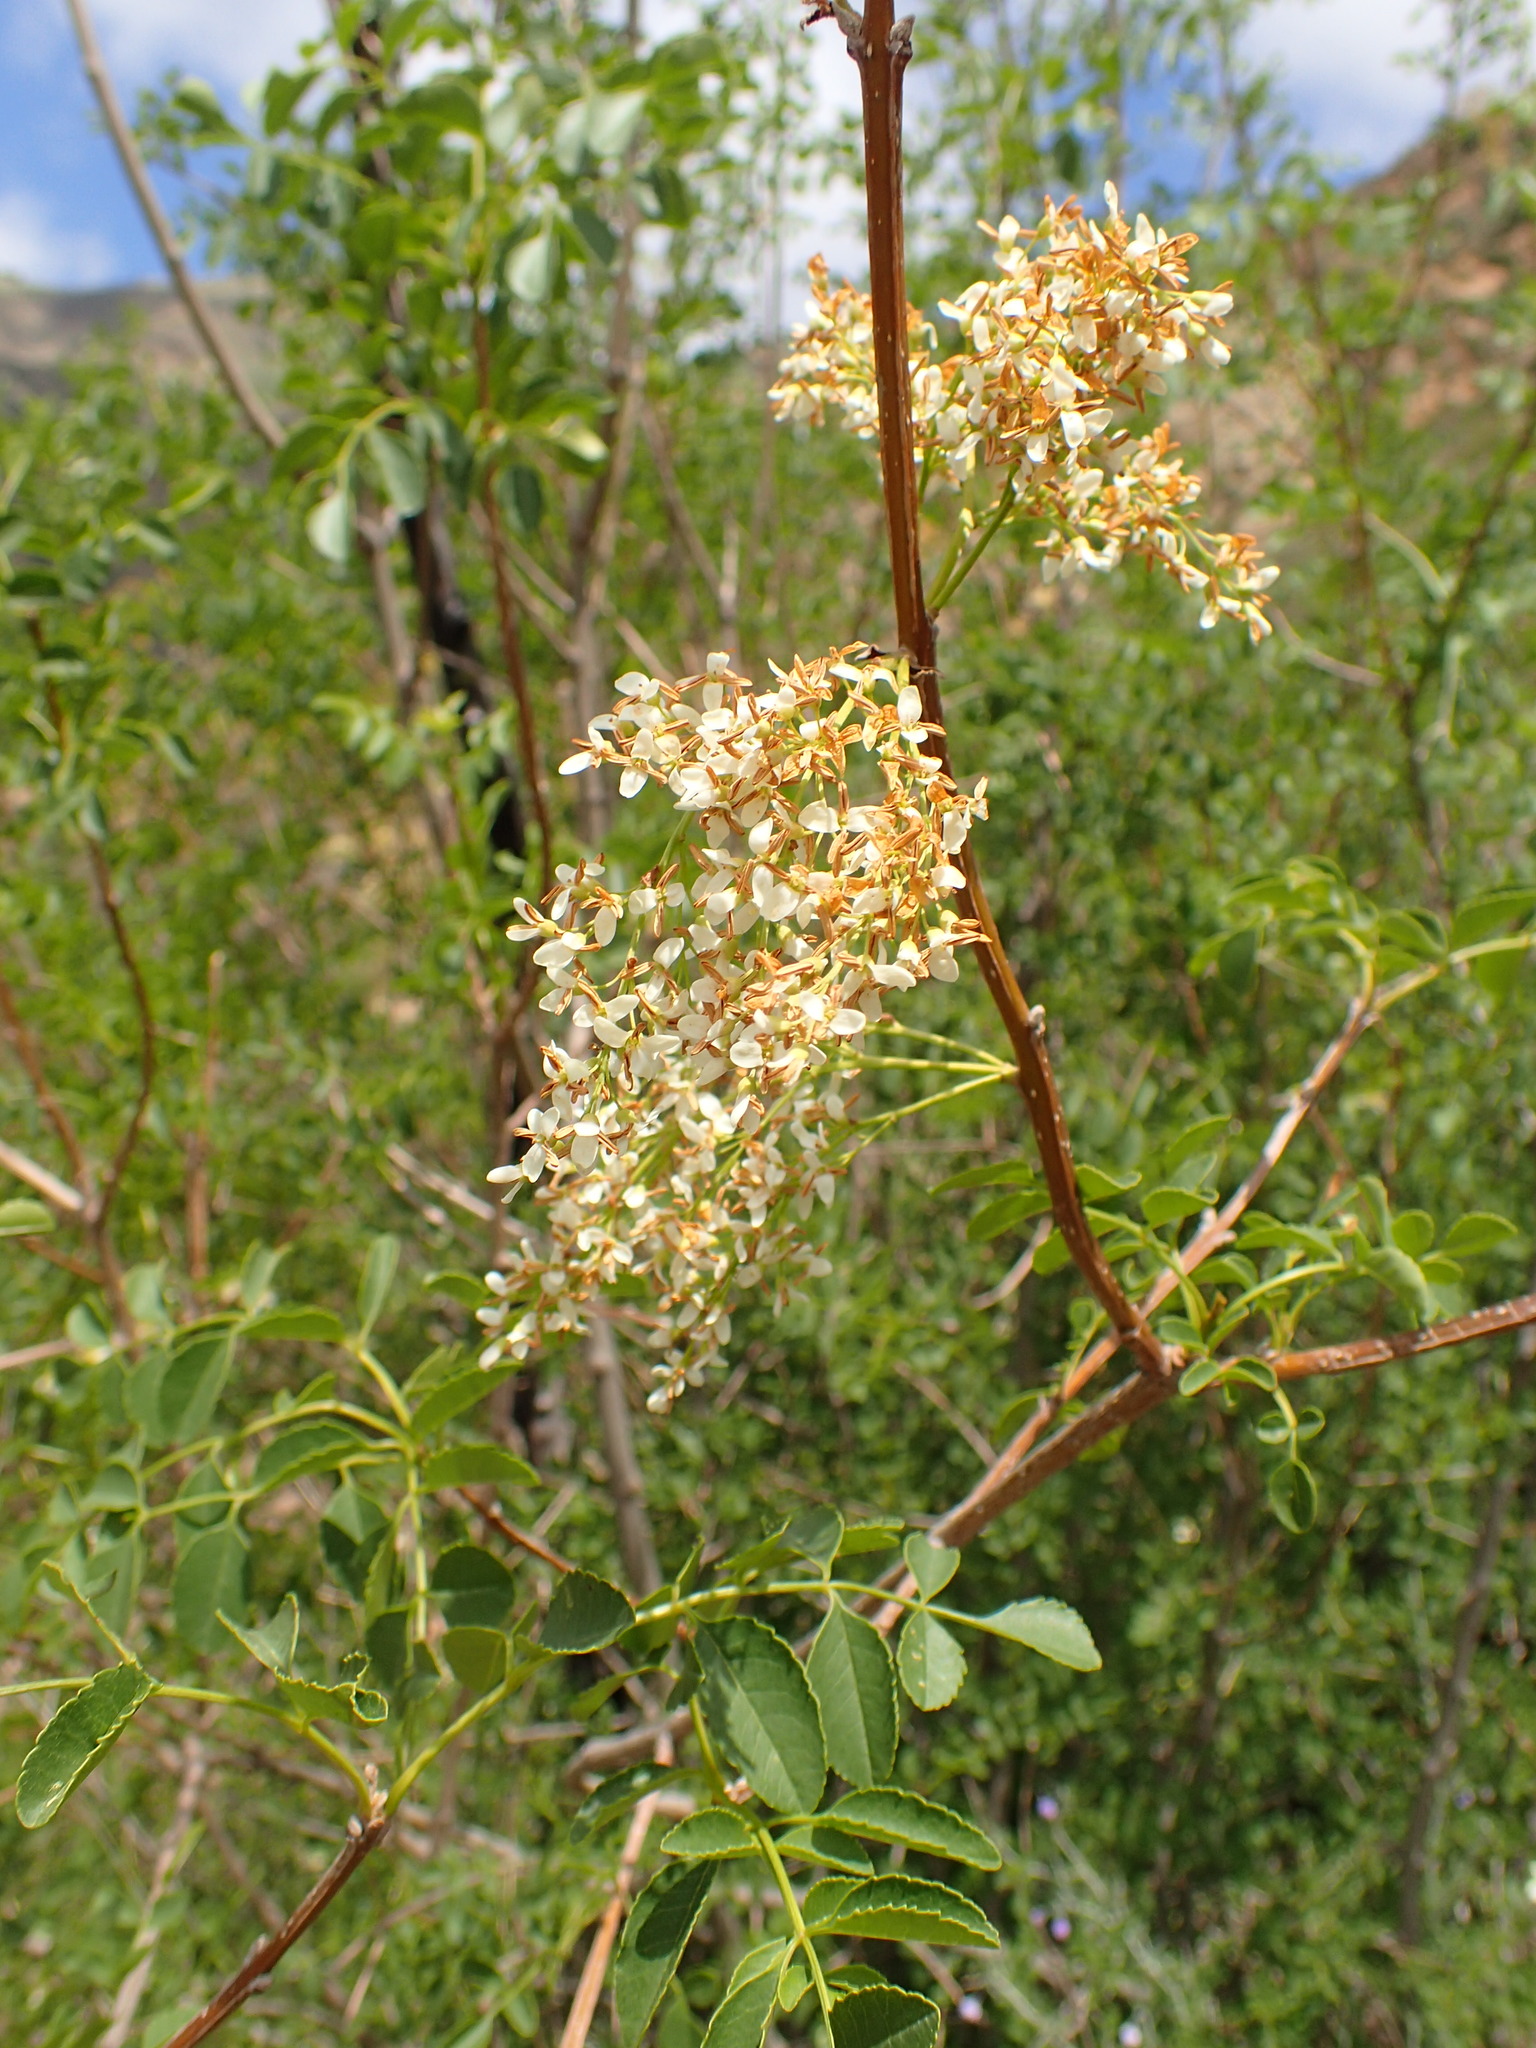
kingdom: Plantae
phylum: Tracheophyta
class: Magnoliopsida
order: Lamiales
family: Oleaceae
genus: Fraxinus
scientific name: Fraxinus dipetala
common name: California ash
